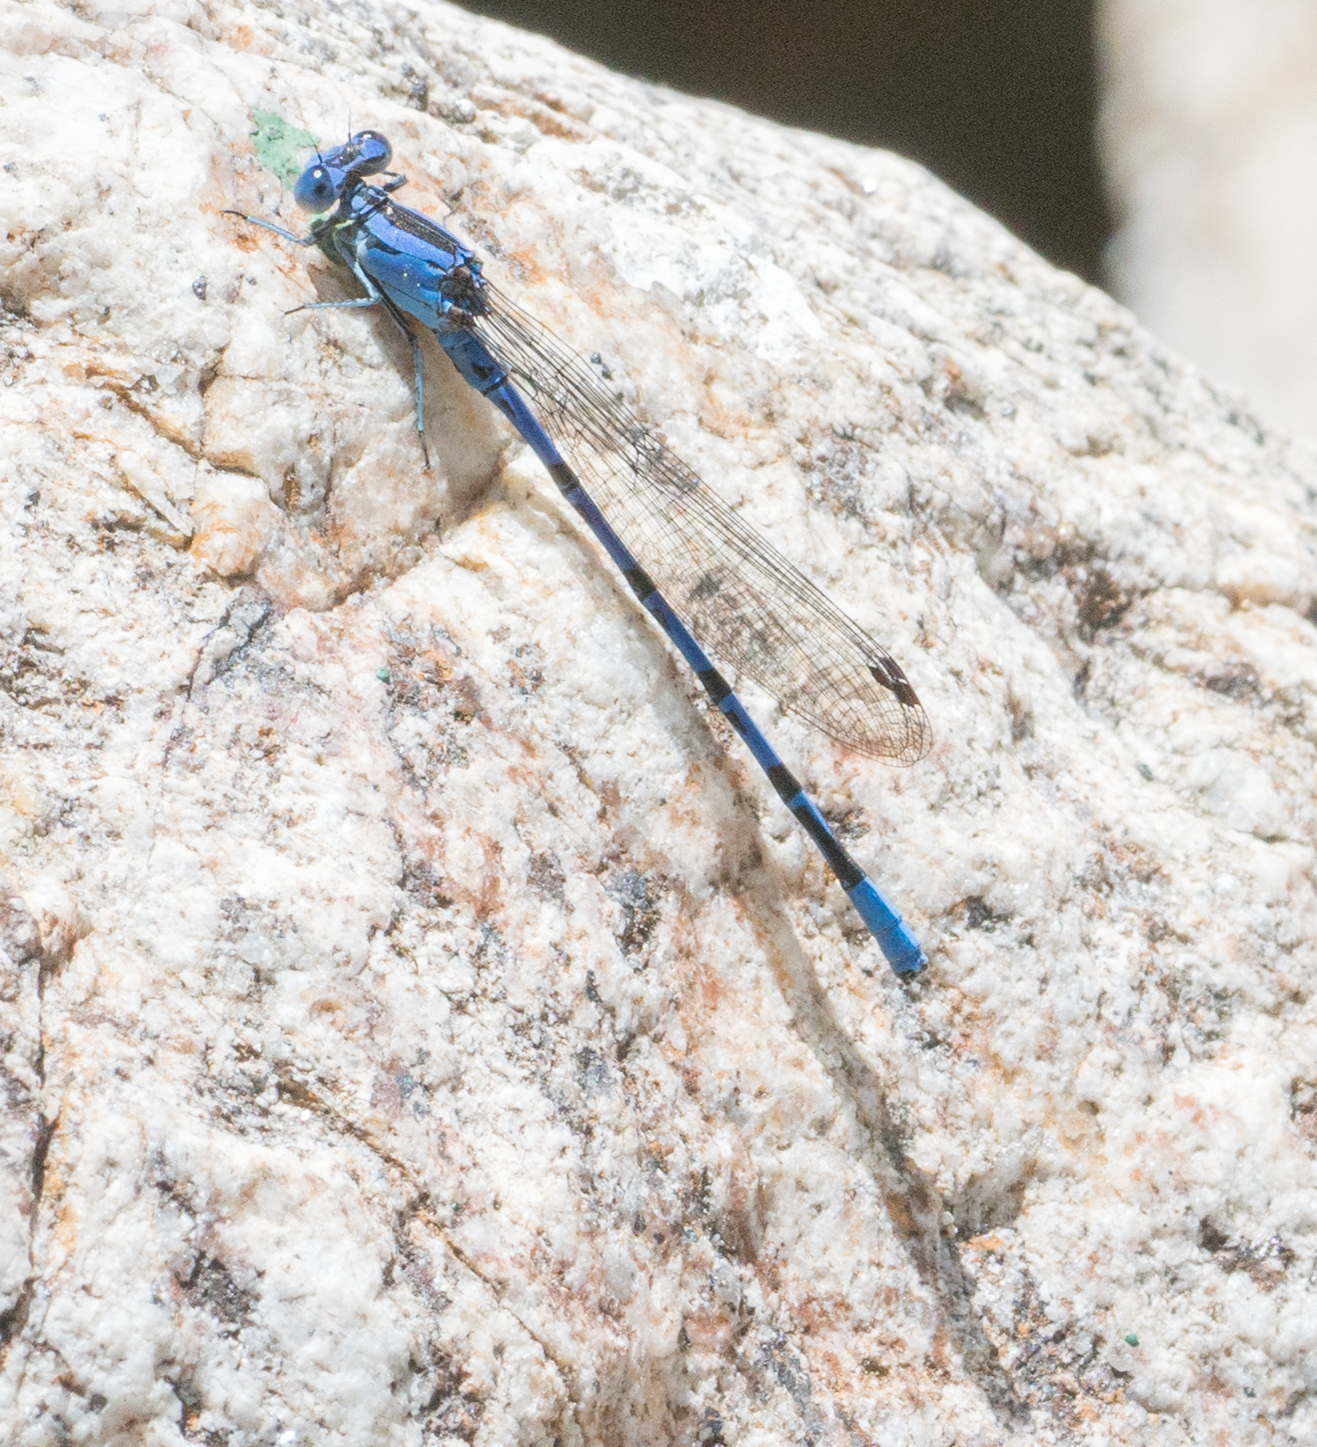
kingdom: Animalia
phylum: Arthropoda
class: Insecta
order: Odonata
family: Coenagrionidae
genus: Argia
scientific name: Argia vivida
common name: Vivid dancer
